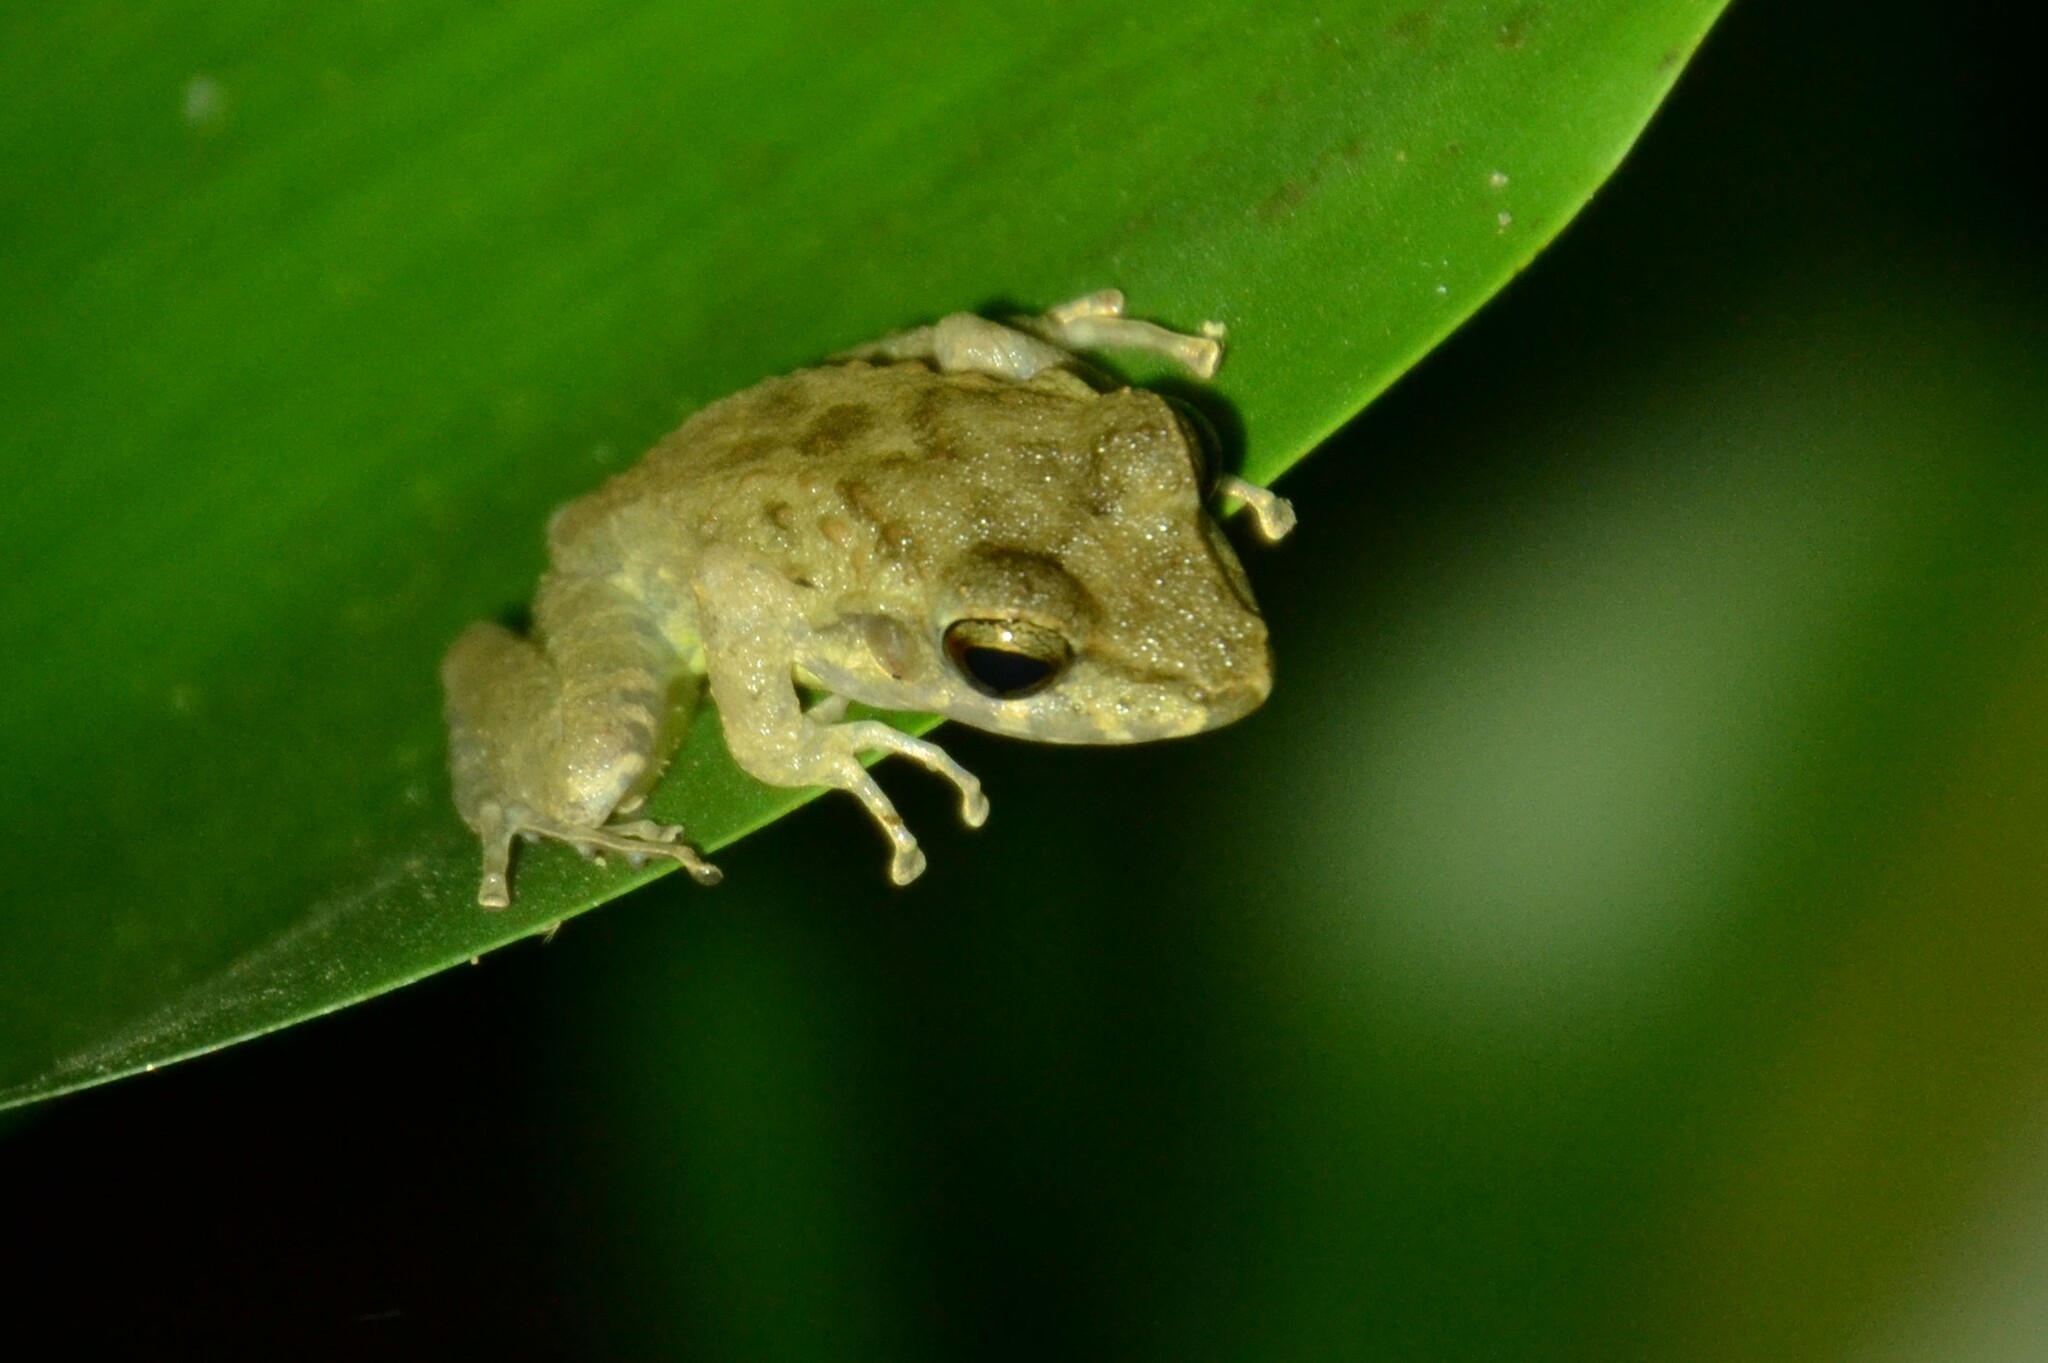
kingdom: Animalia
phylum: Chordata
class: Amphibia
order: Anura
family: Craugastoridae
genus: Craugastor
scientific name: Craugastor fitzingeri
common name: Fitzinger's robber frog
